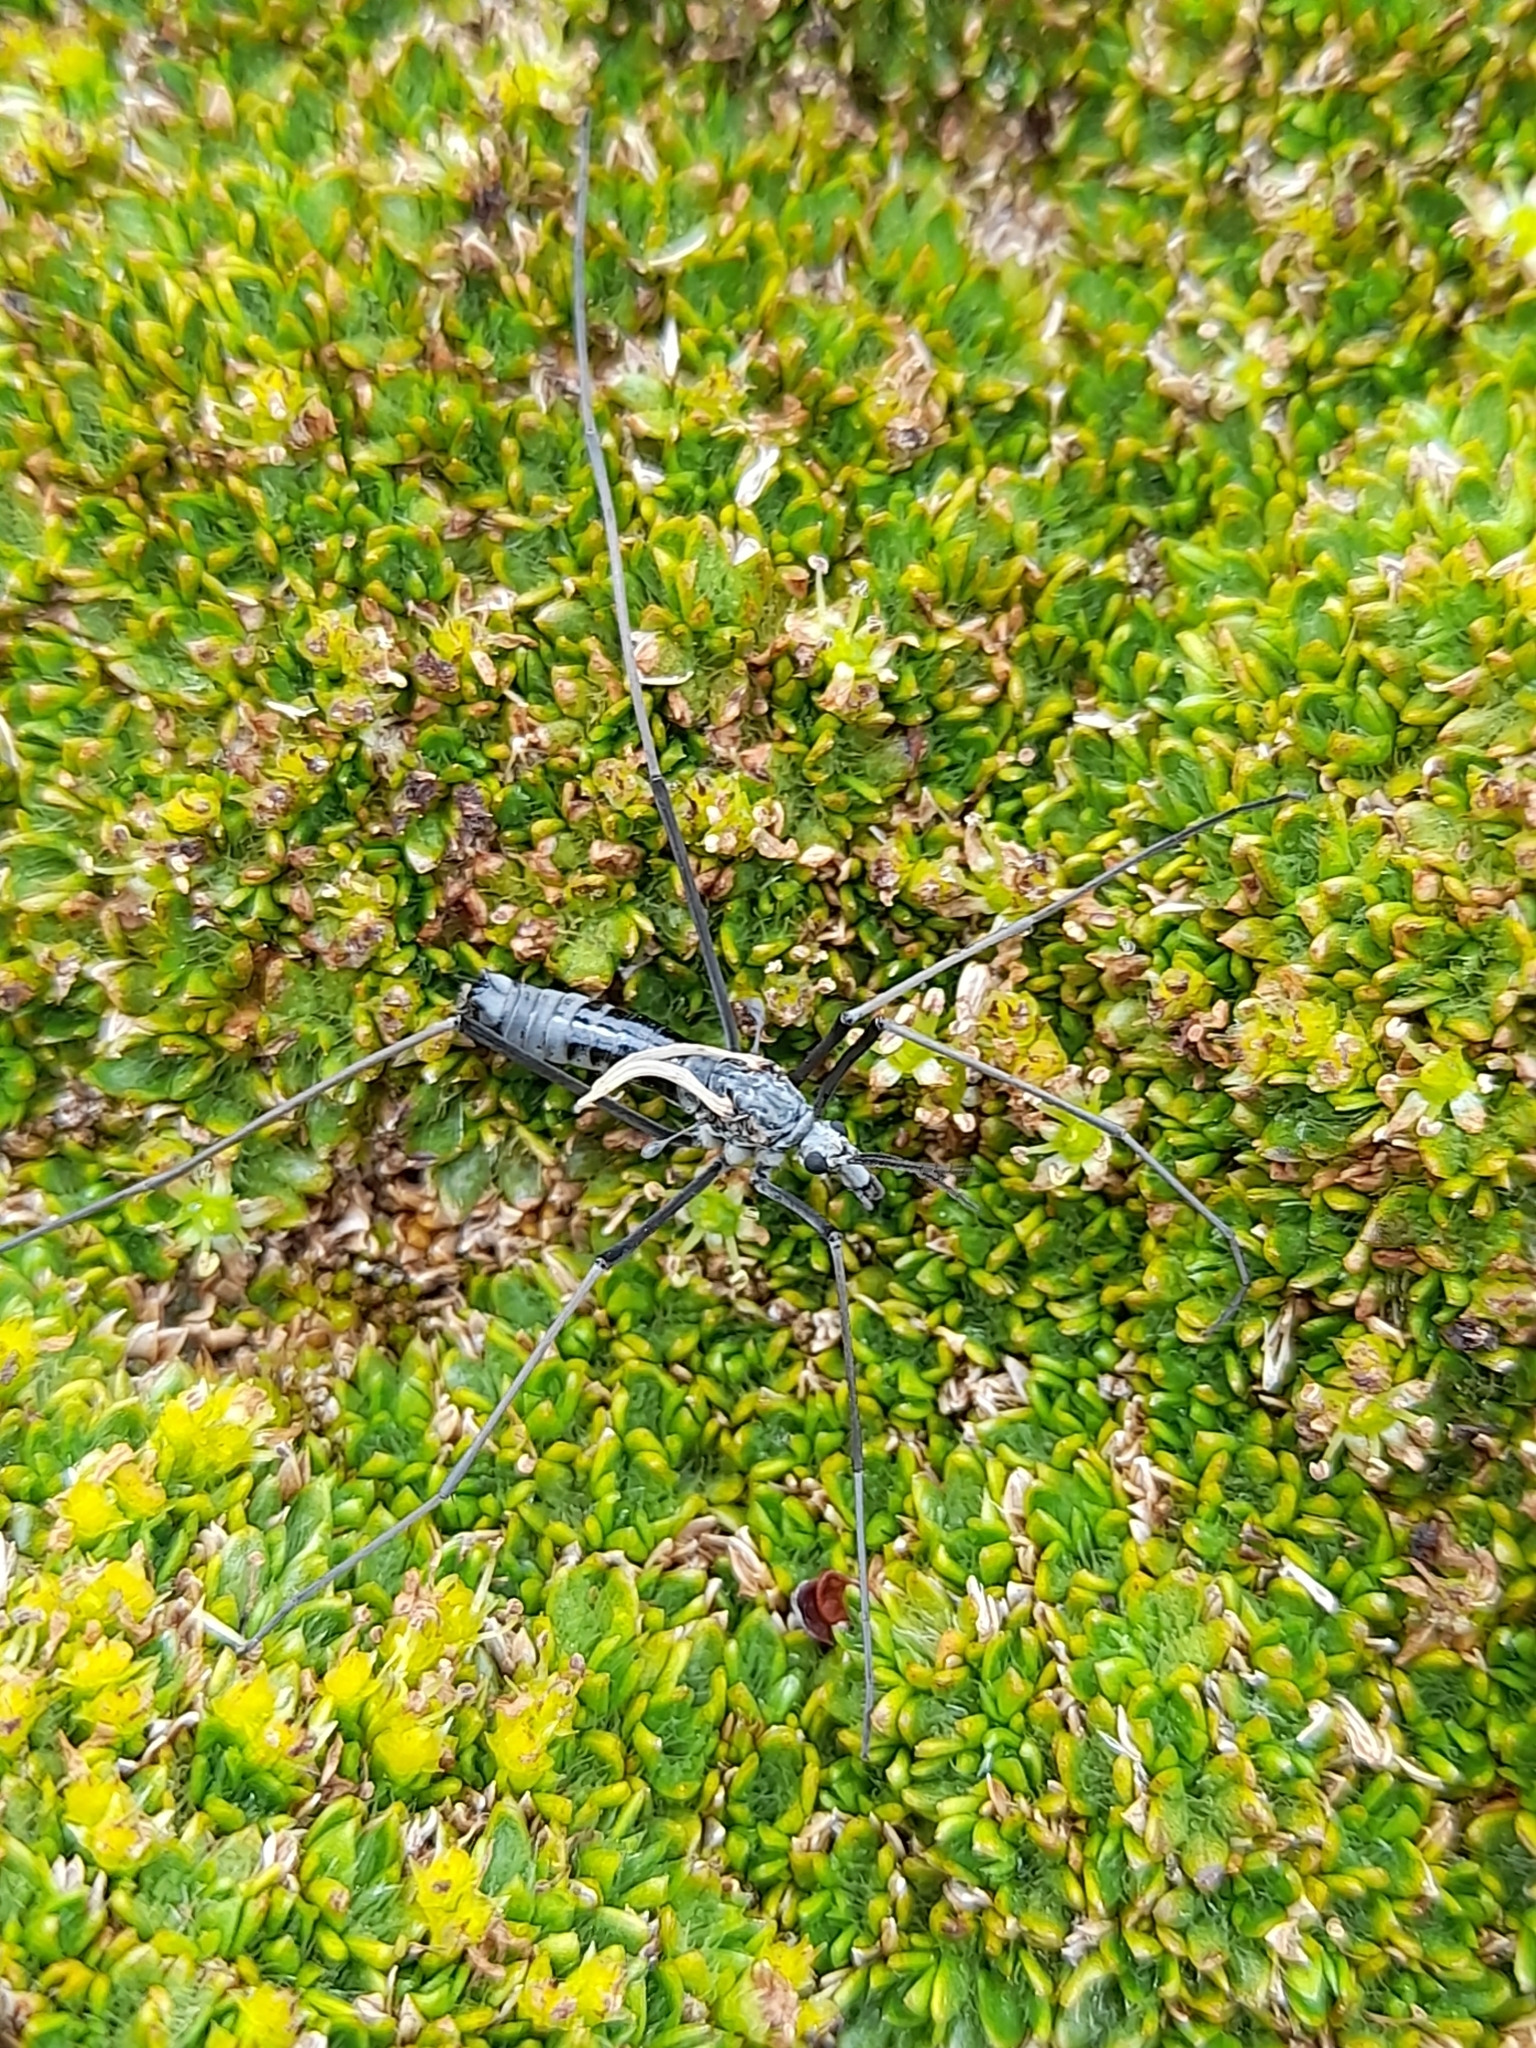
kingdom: Animalia
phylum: Arthropoda
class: Insecta
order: Diptera
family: Tipulidae
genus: Tipula
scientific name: Tipula kuscheli
